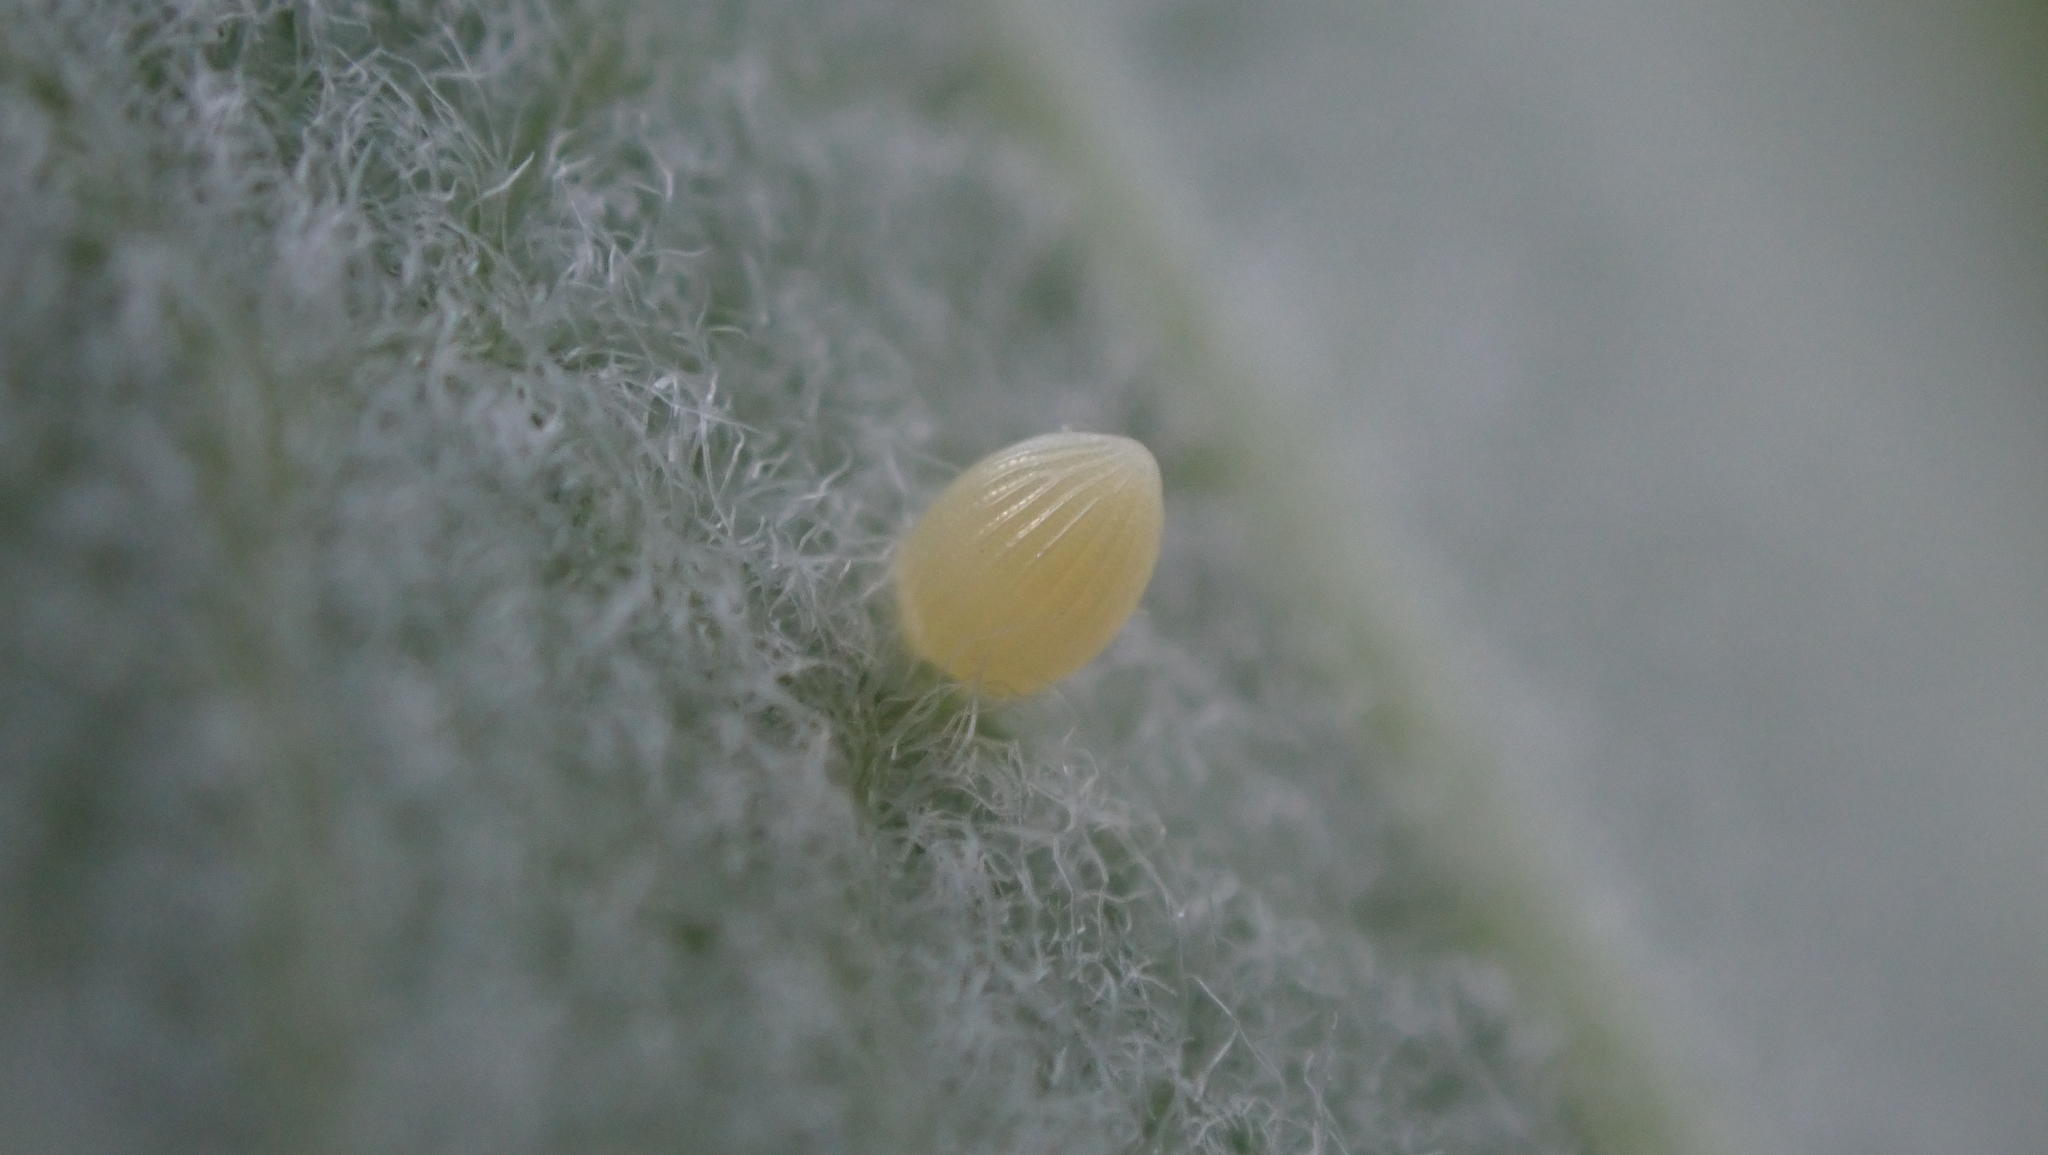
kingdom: Animalia
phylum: Arthropoda
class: Insecta
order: Lepidoptera
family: Nymphalidae
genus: Danaus
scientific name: Danaus plexippus
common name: Monarch
